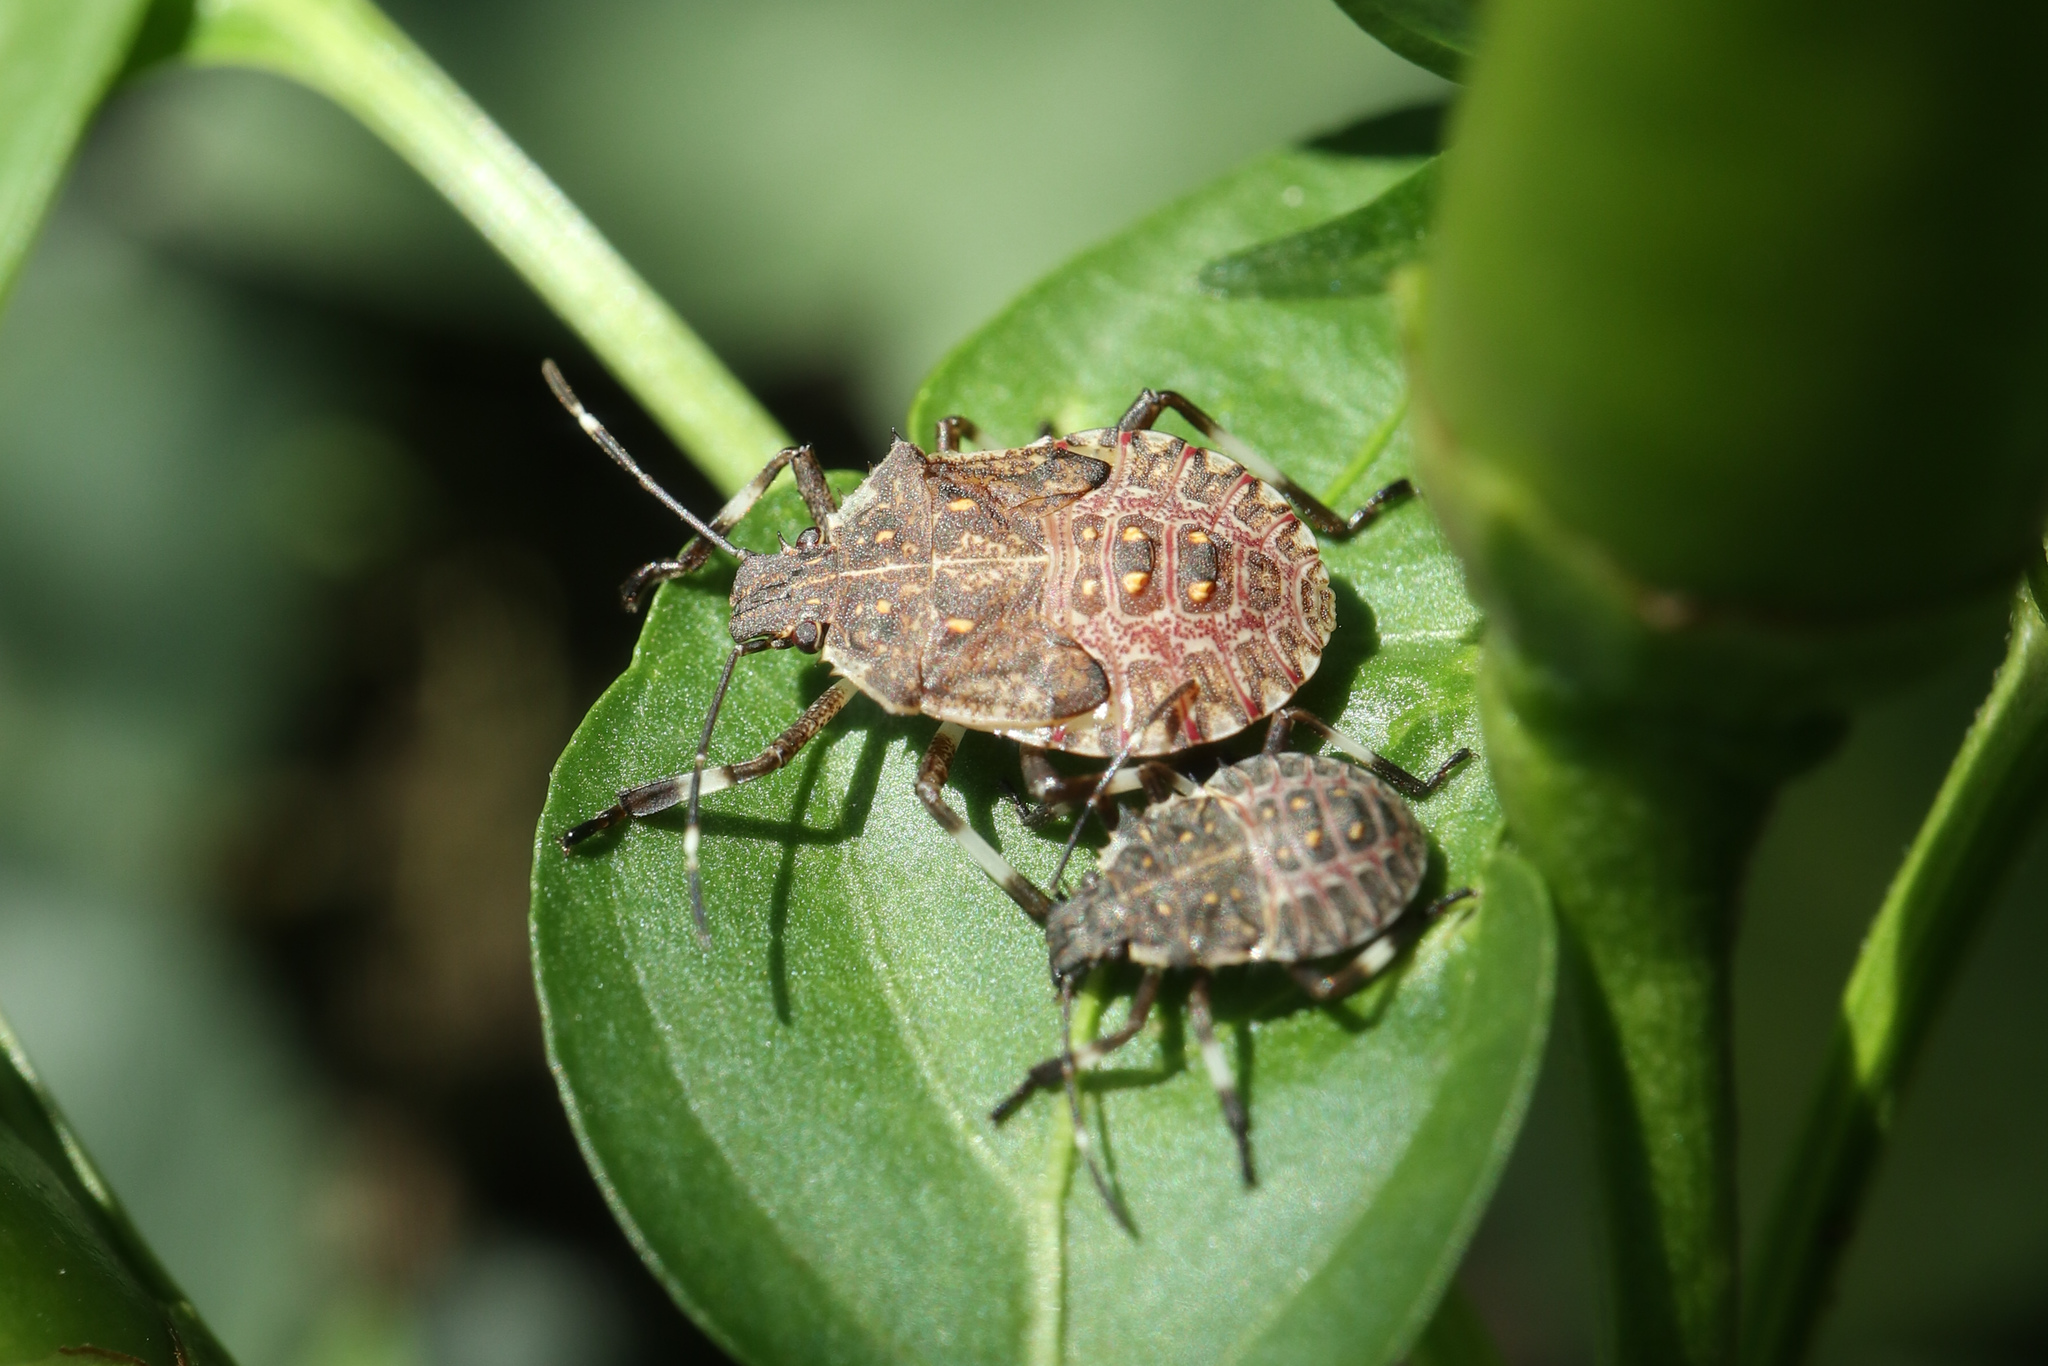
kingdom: Animalia
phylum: Arthropoda
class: Insecta
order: Hemiptera
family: Pentatomidae
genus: Halyomorpha
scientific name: Halyomorpha halys
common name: Brown marmorated stink bug
